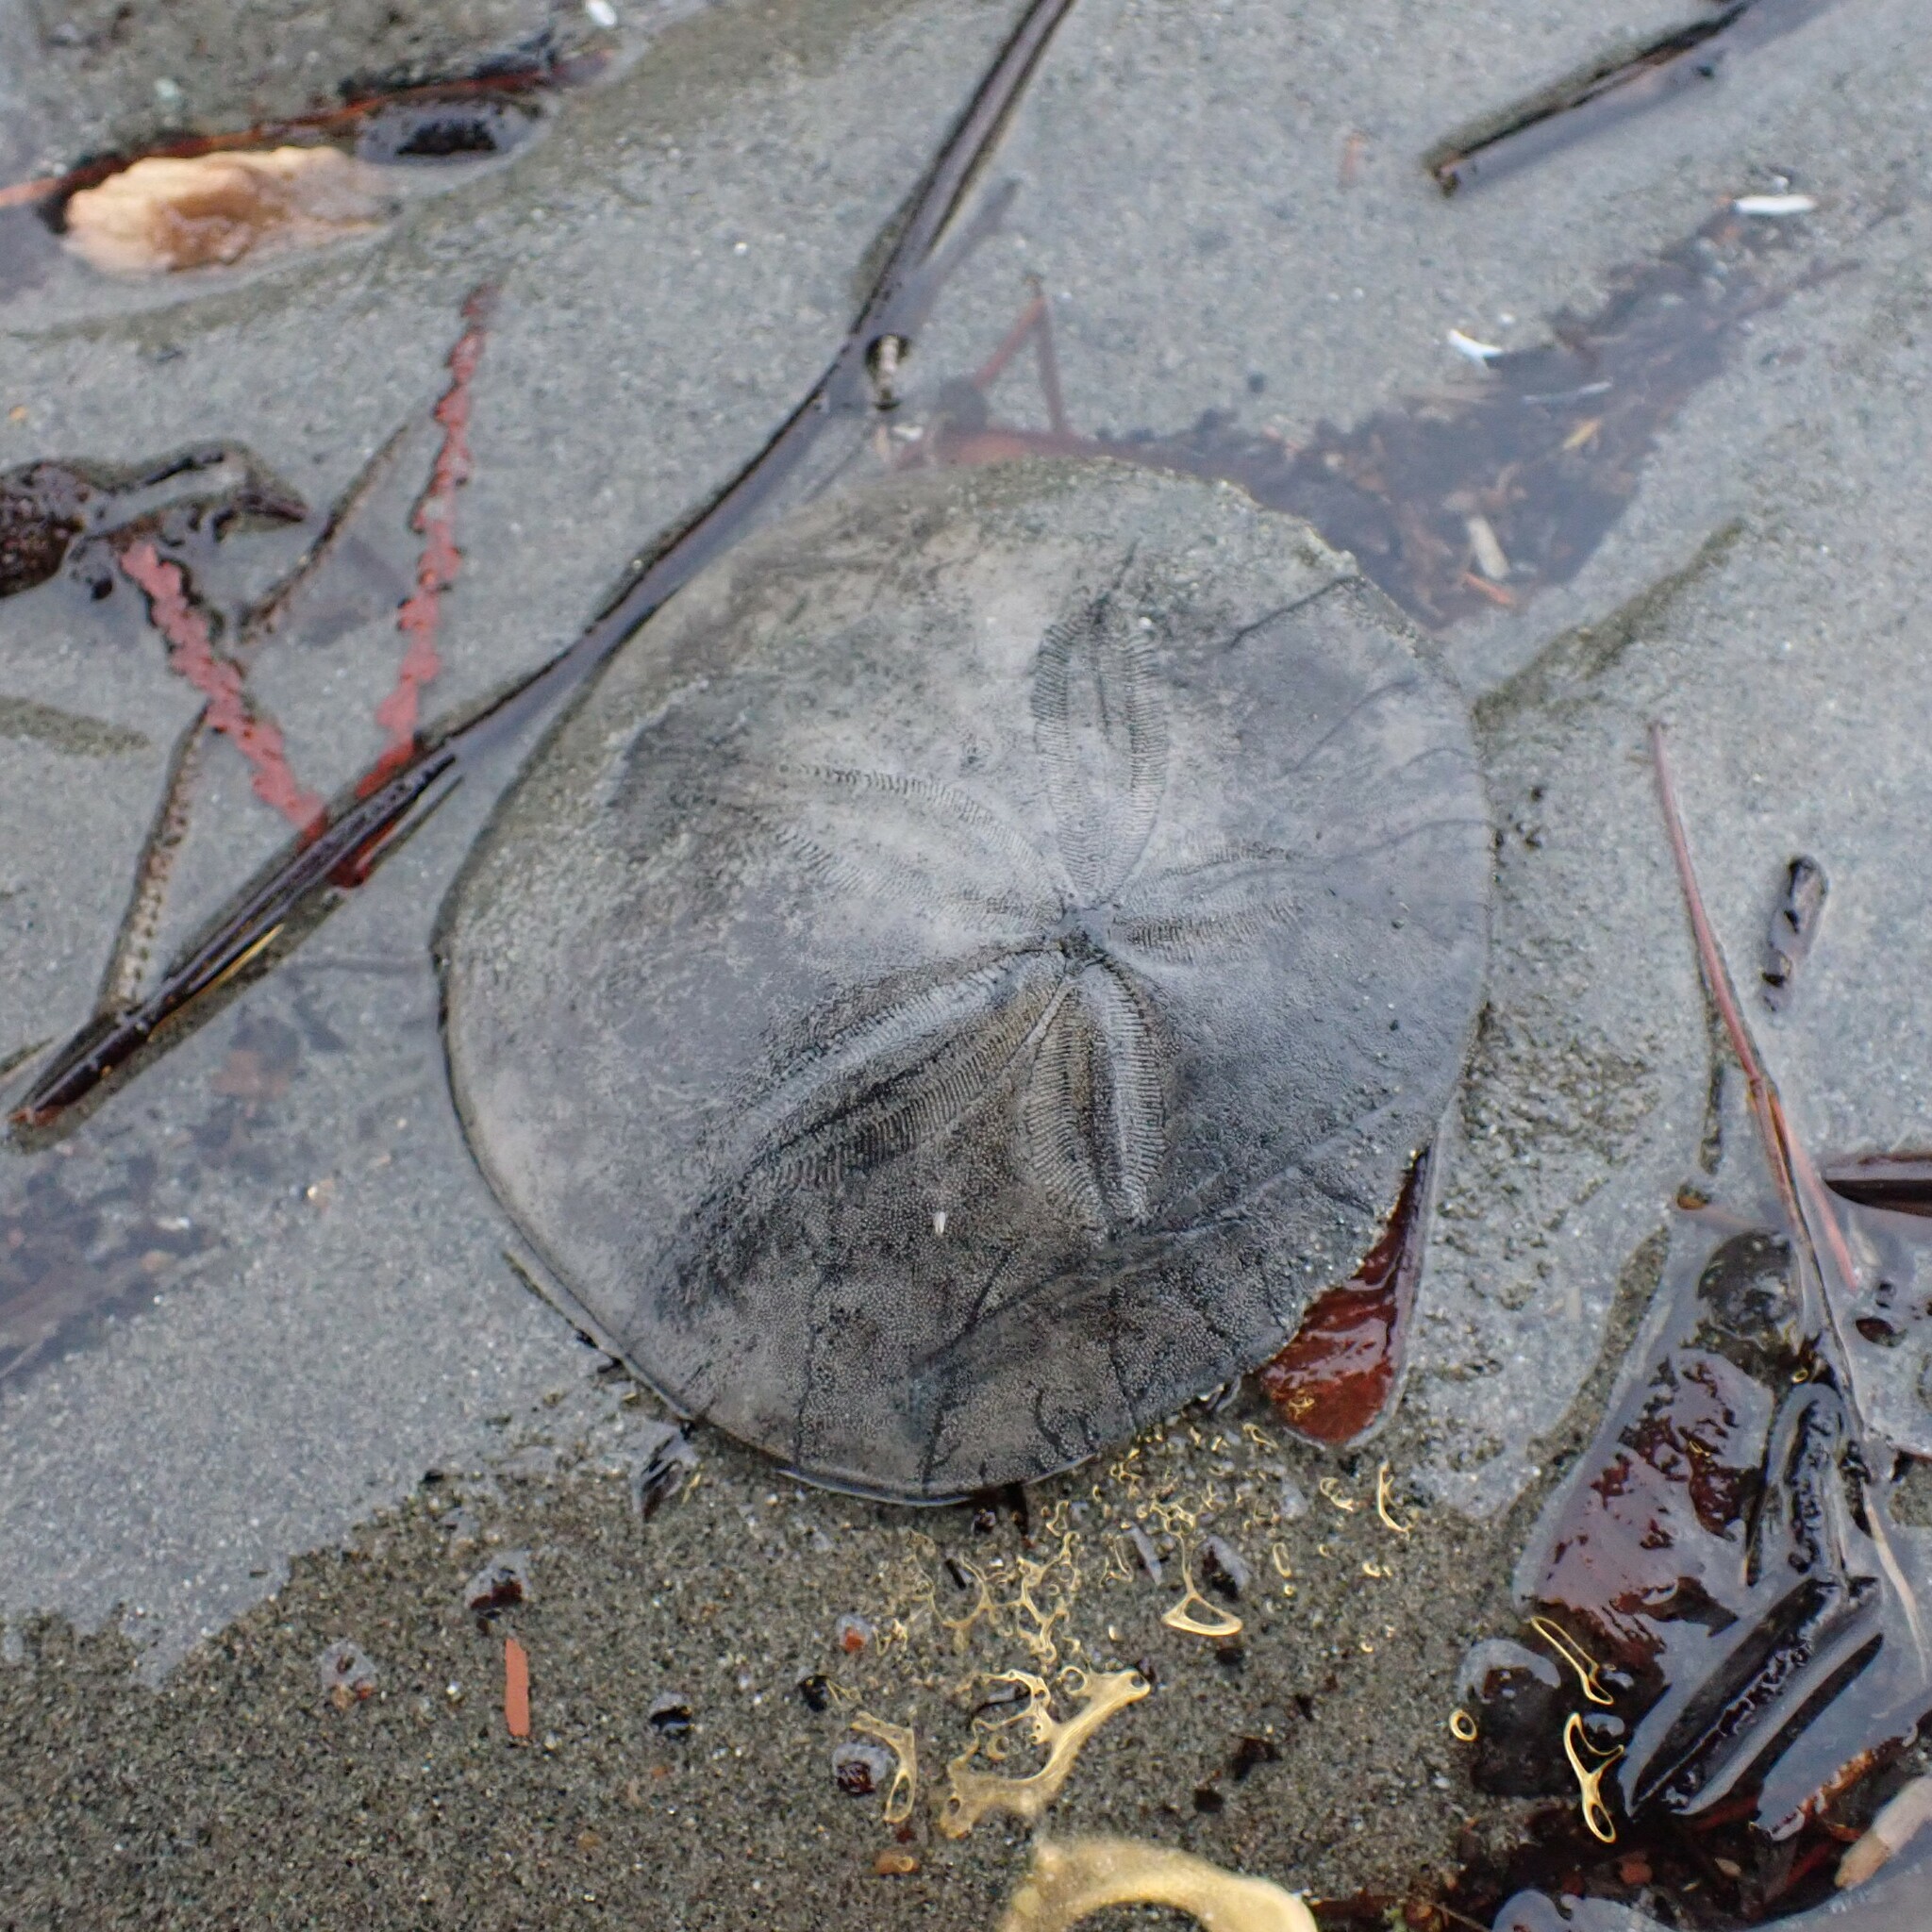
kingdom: Animalia
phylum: Echinodermata
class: Echinoidea
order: Echinolampadacea
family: Dendrasteridae
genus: Dendraster
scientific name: Dendraster excentricus
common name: Eccentric sand dollar sea urchin
